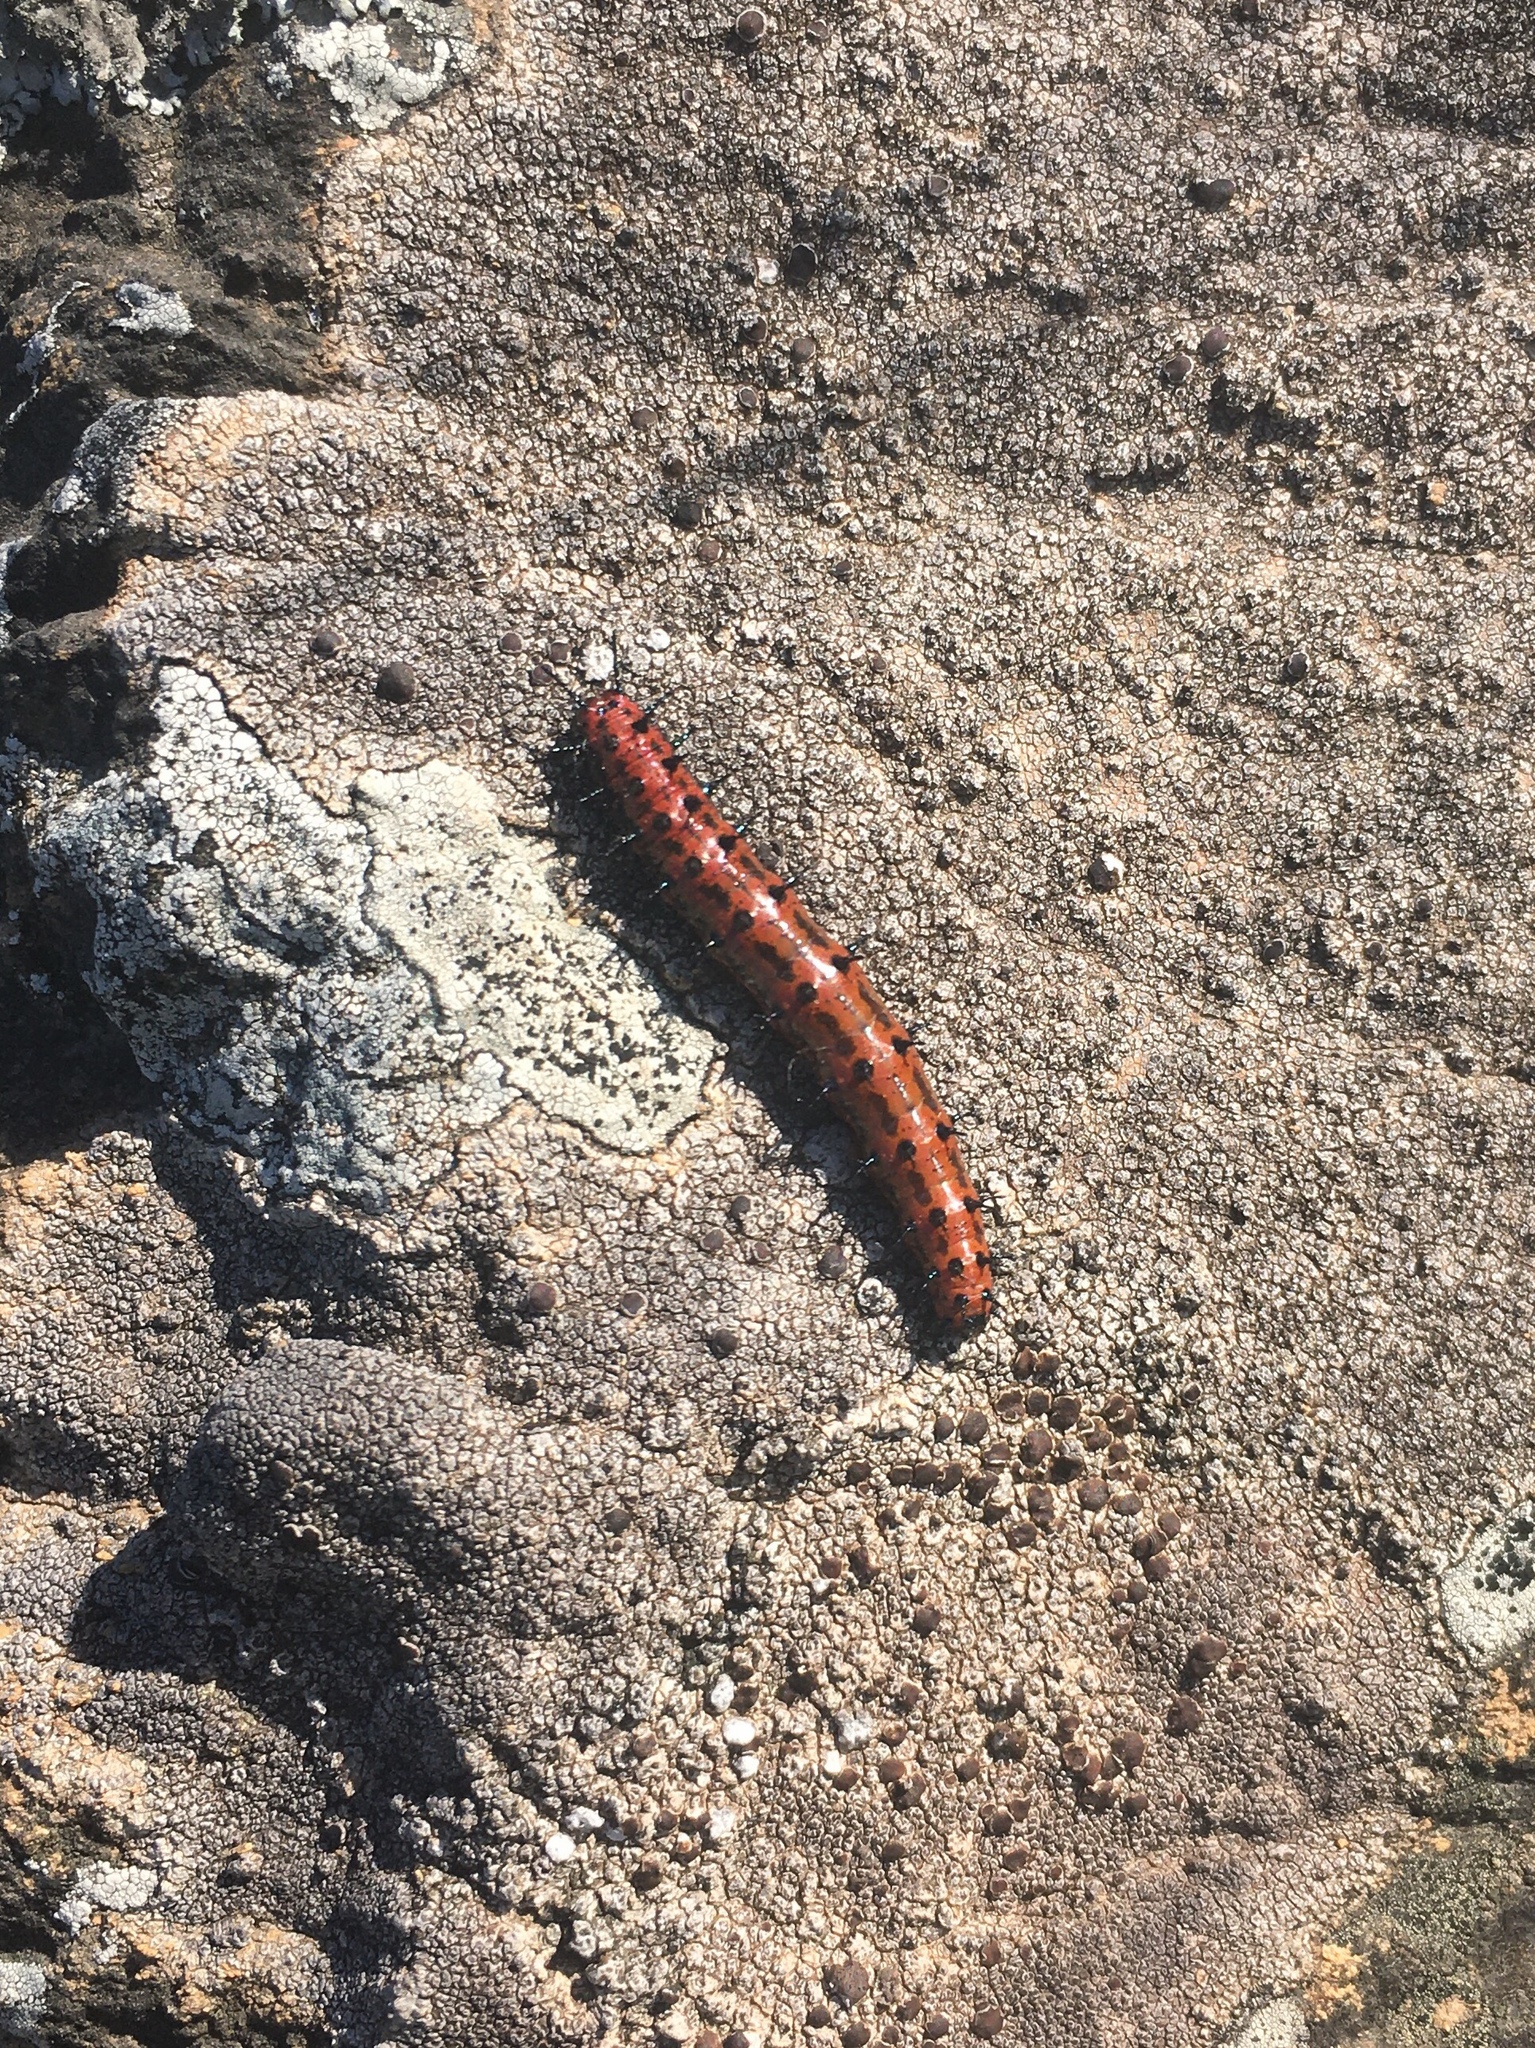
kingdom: Animalia
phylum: Arthropoda
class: Insecta
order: Lepidoptera
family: Nymphalidae
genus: Euptoieta
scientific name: Euptoieta hortensia
